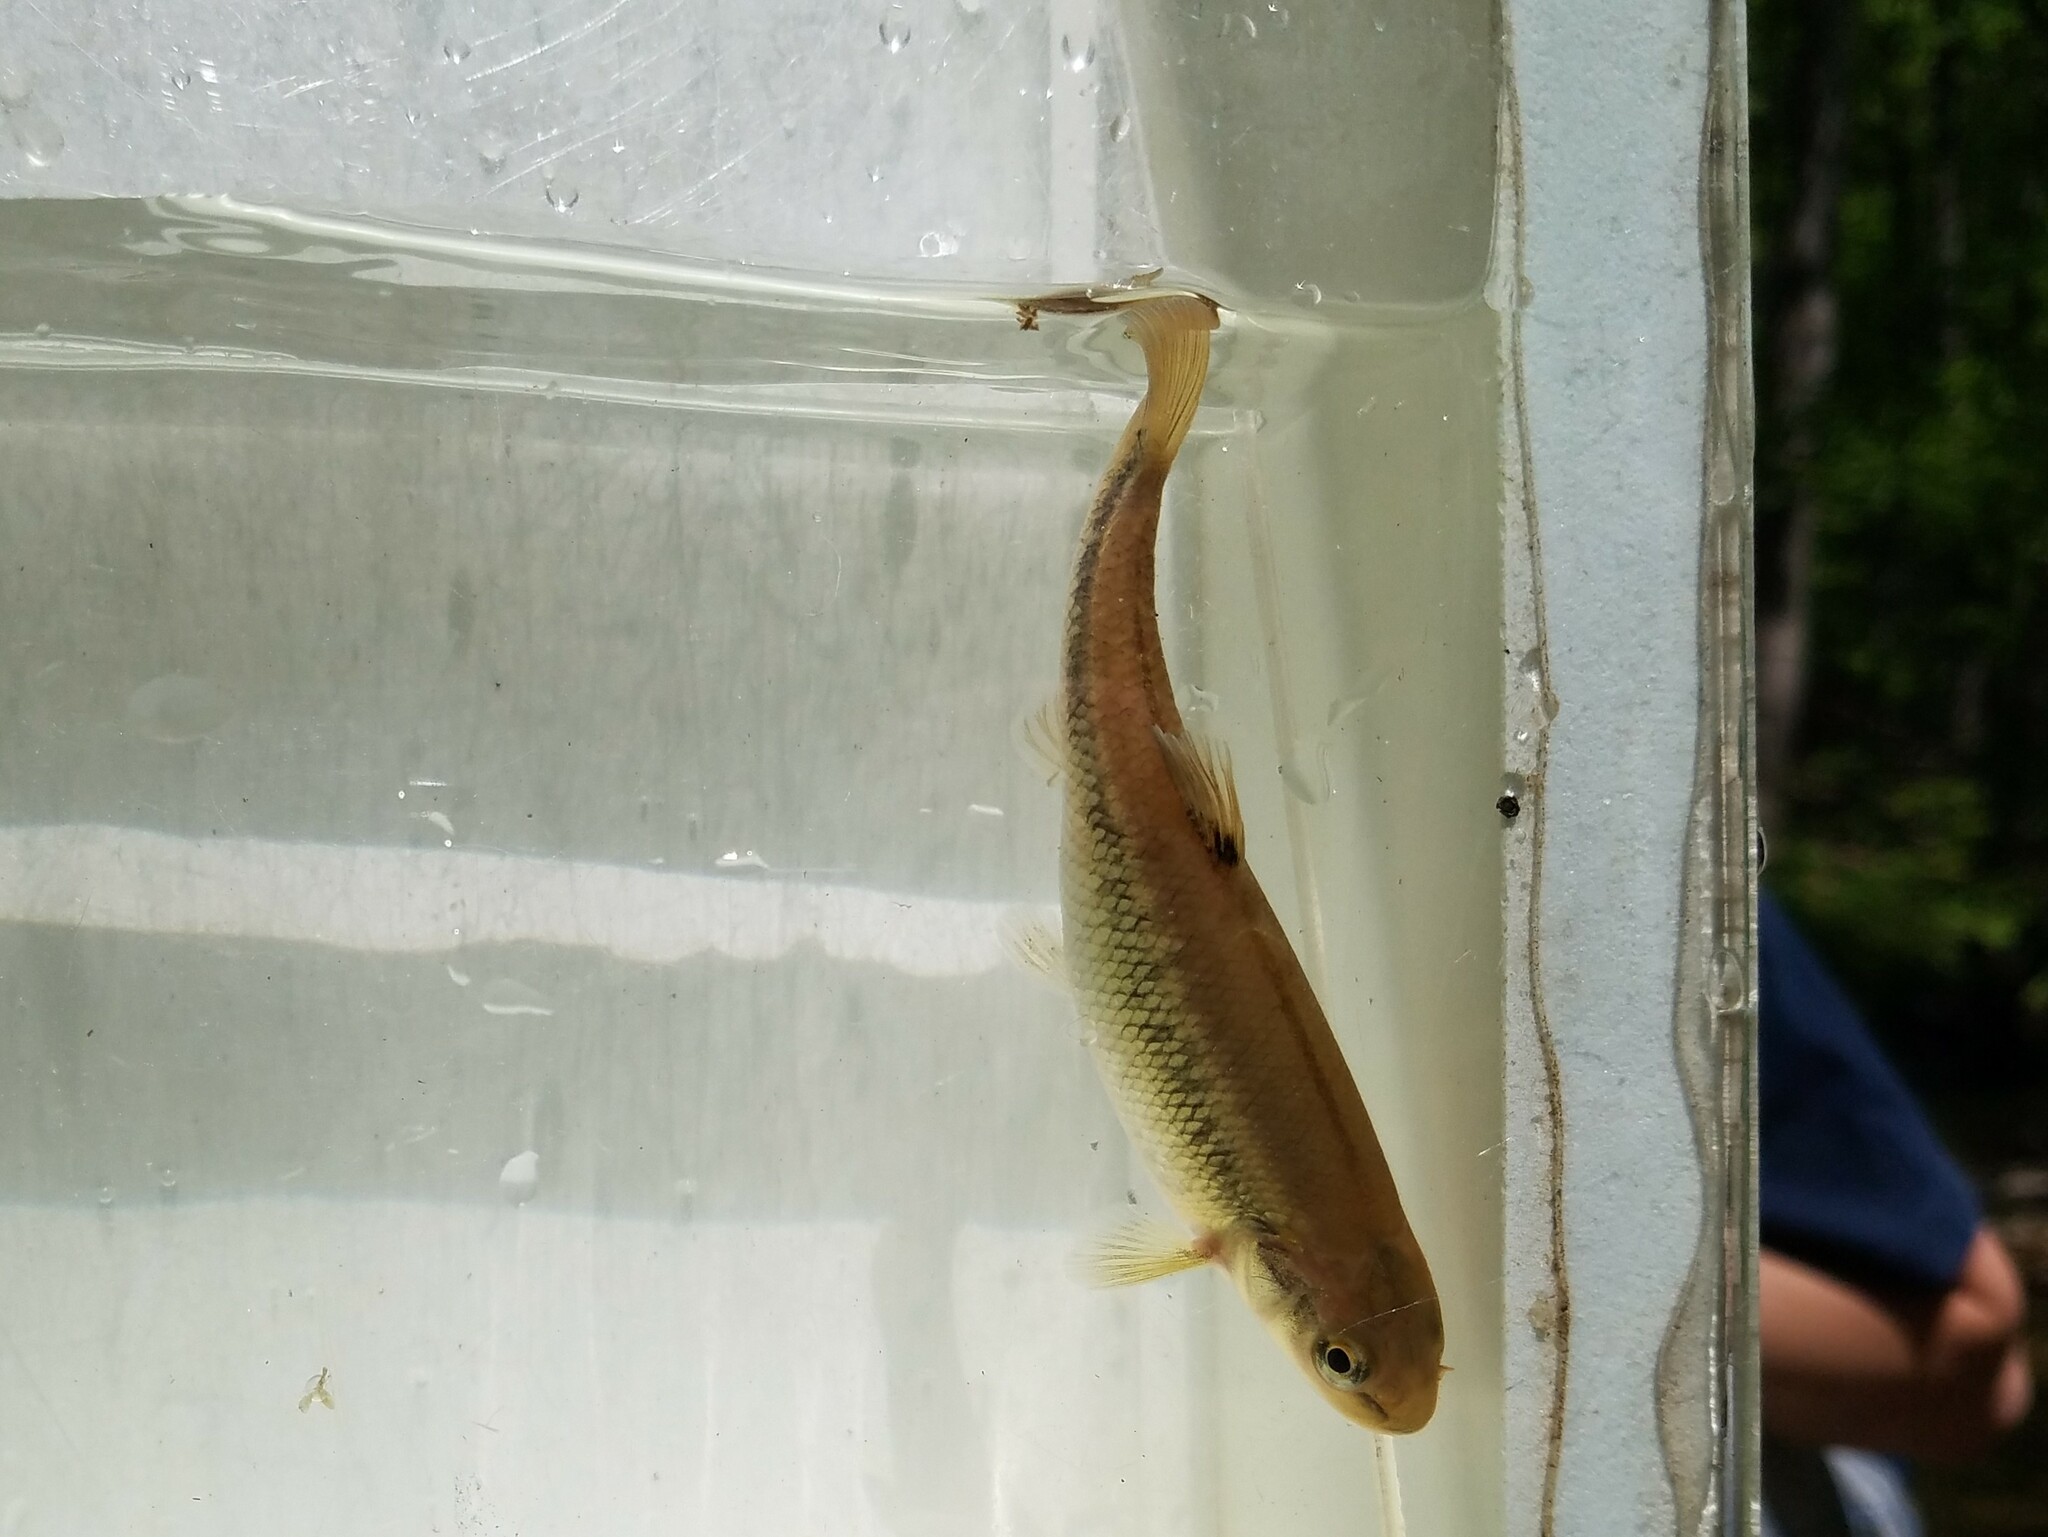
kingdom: Animalia
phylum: Chordata
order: Cypriniformes
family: Cyprinidae
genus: Semotilus
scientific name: Semotilus atromaculatus
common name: Creek chub
